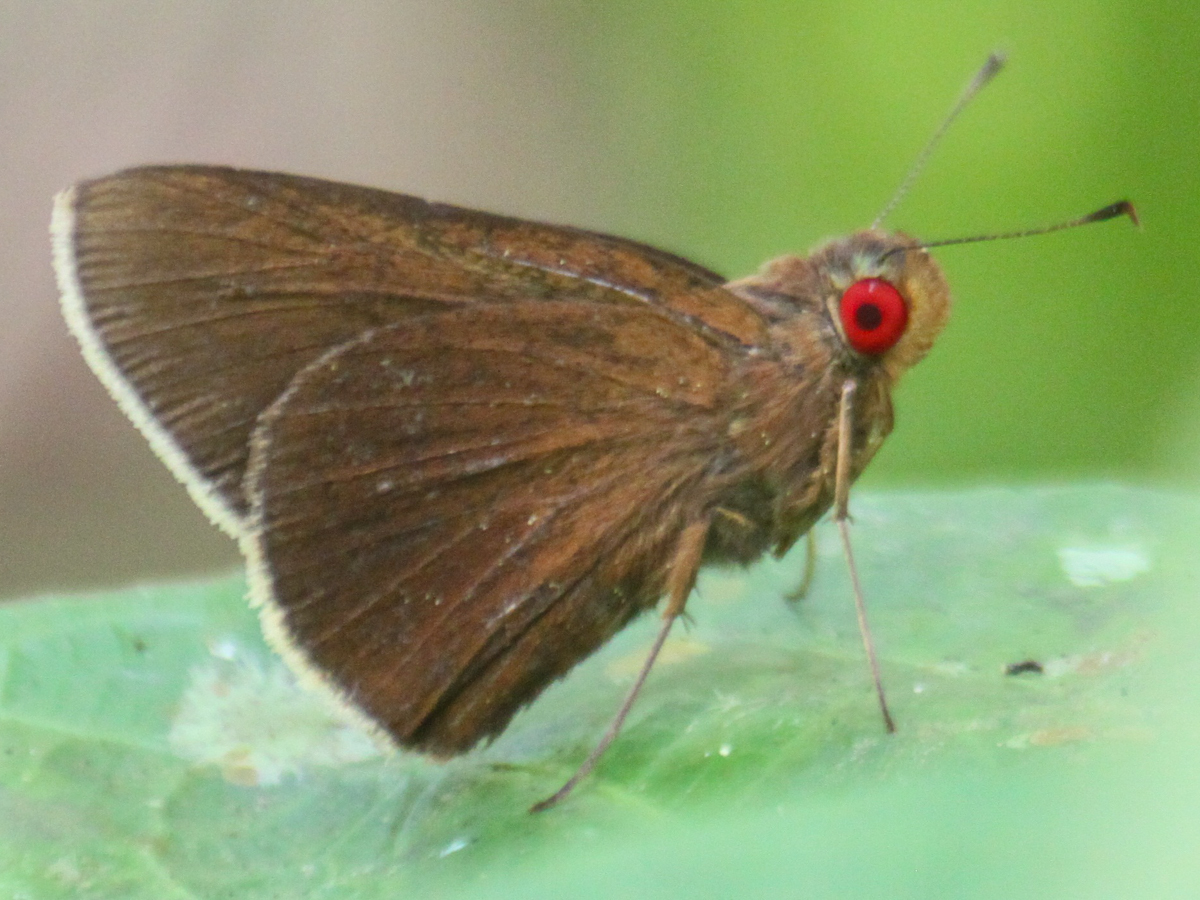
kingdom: Animalia
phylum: Arthropoda
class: Insecta
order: Lepidoptera
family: Hesperiidae
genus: Matapa
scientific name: Matapa aria
